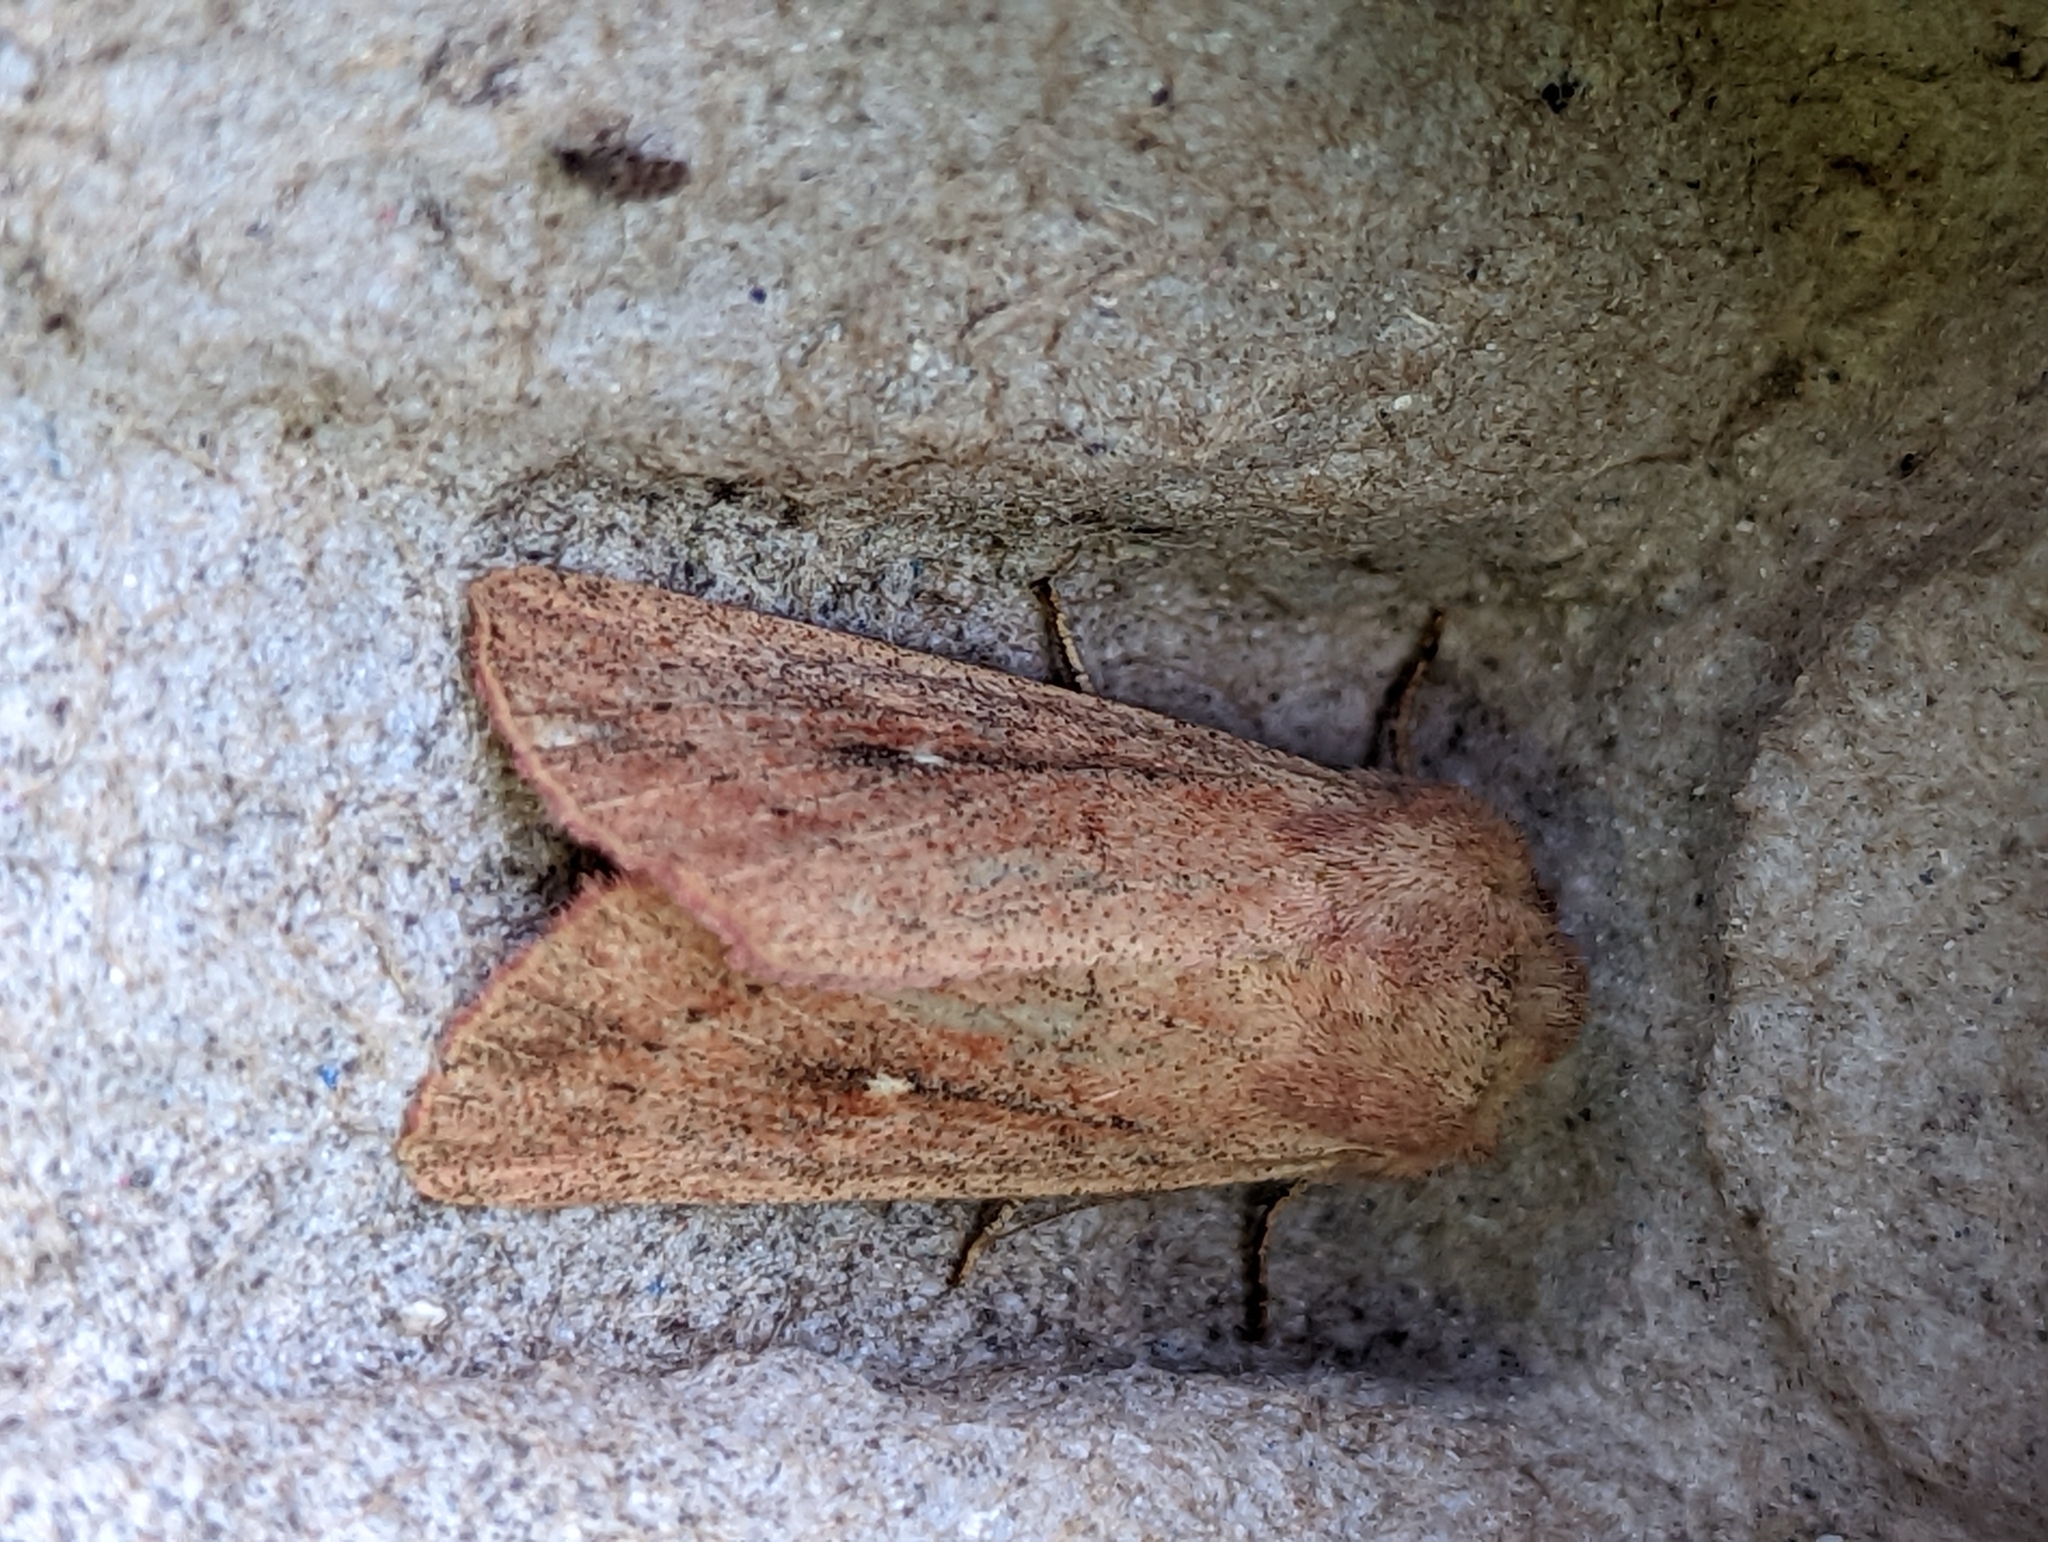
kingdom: Animalia
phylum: Arthropoda
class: Insecta
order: Lepidoptera
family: Noctuidae
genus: Mythimna
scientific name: Mythimna ferrago
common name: Clay
